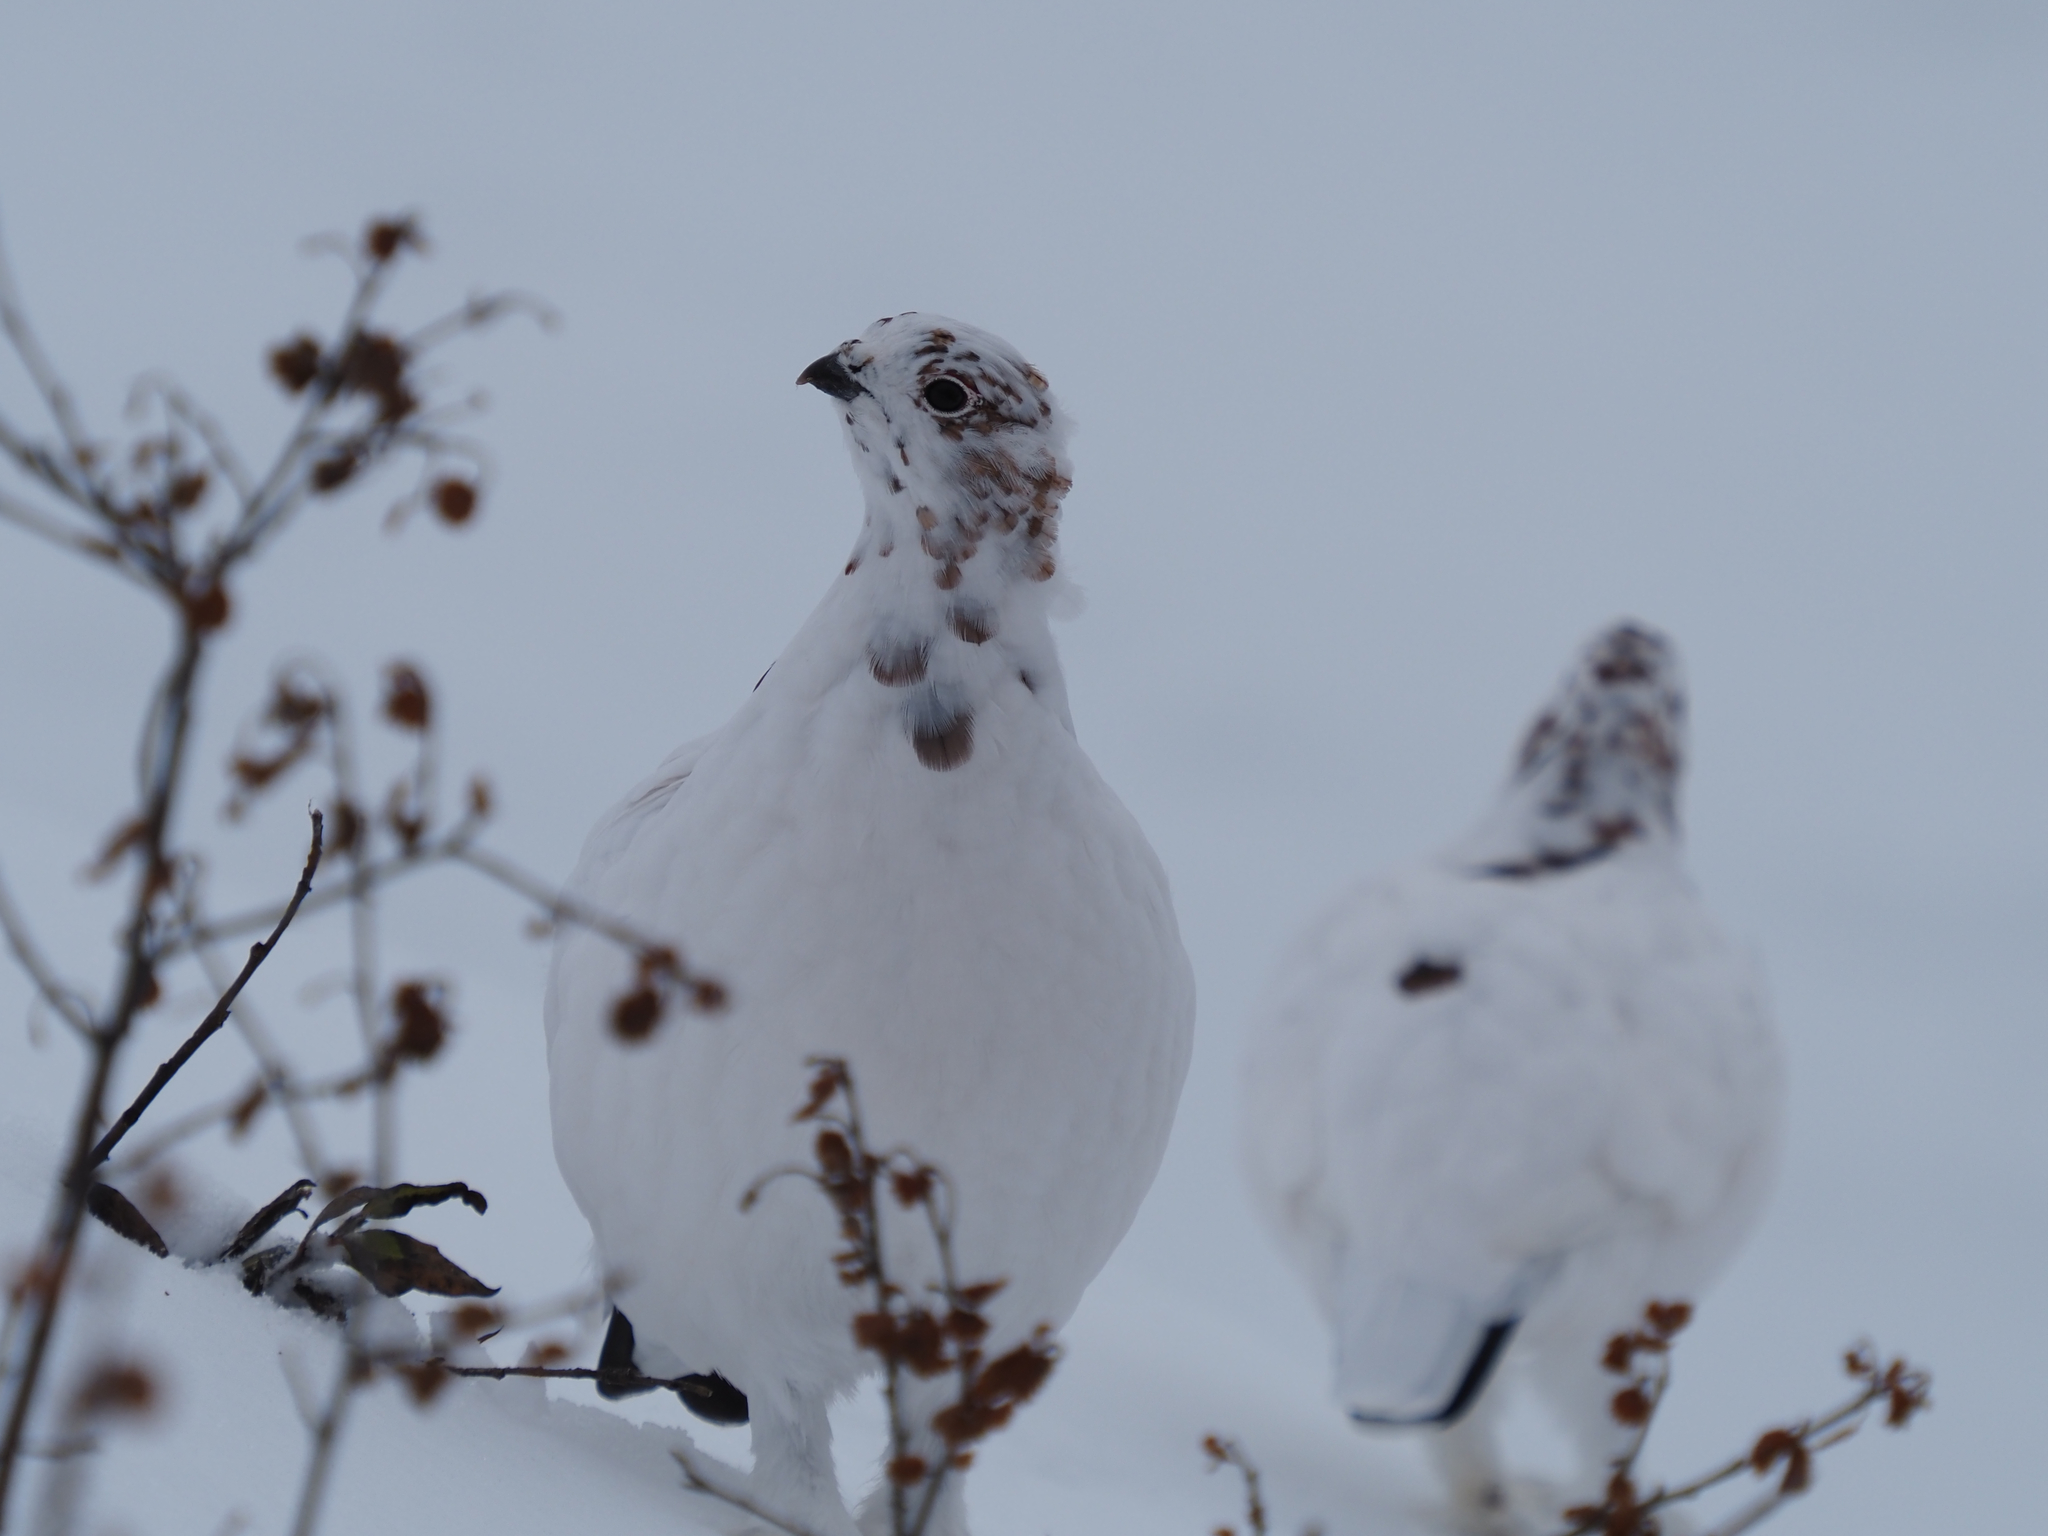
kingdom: Animalia
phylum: Chordata
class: Aves
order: Galliformes
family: Phasianidae
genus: Lagopus
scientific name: Lagopus lagopus
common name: Willow ptarmigan
